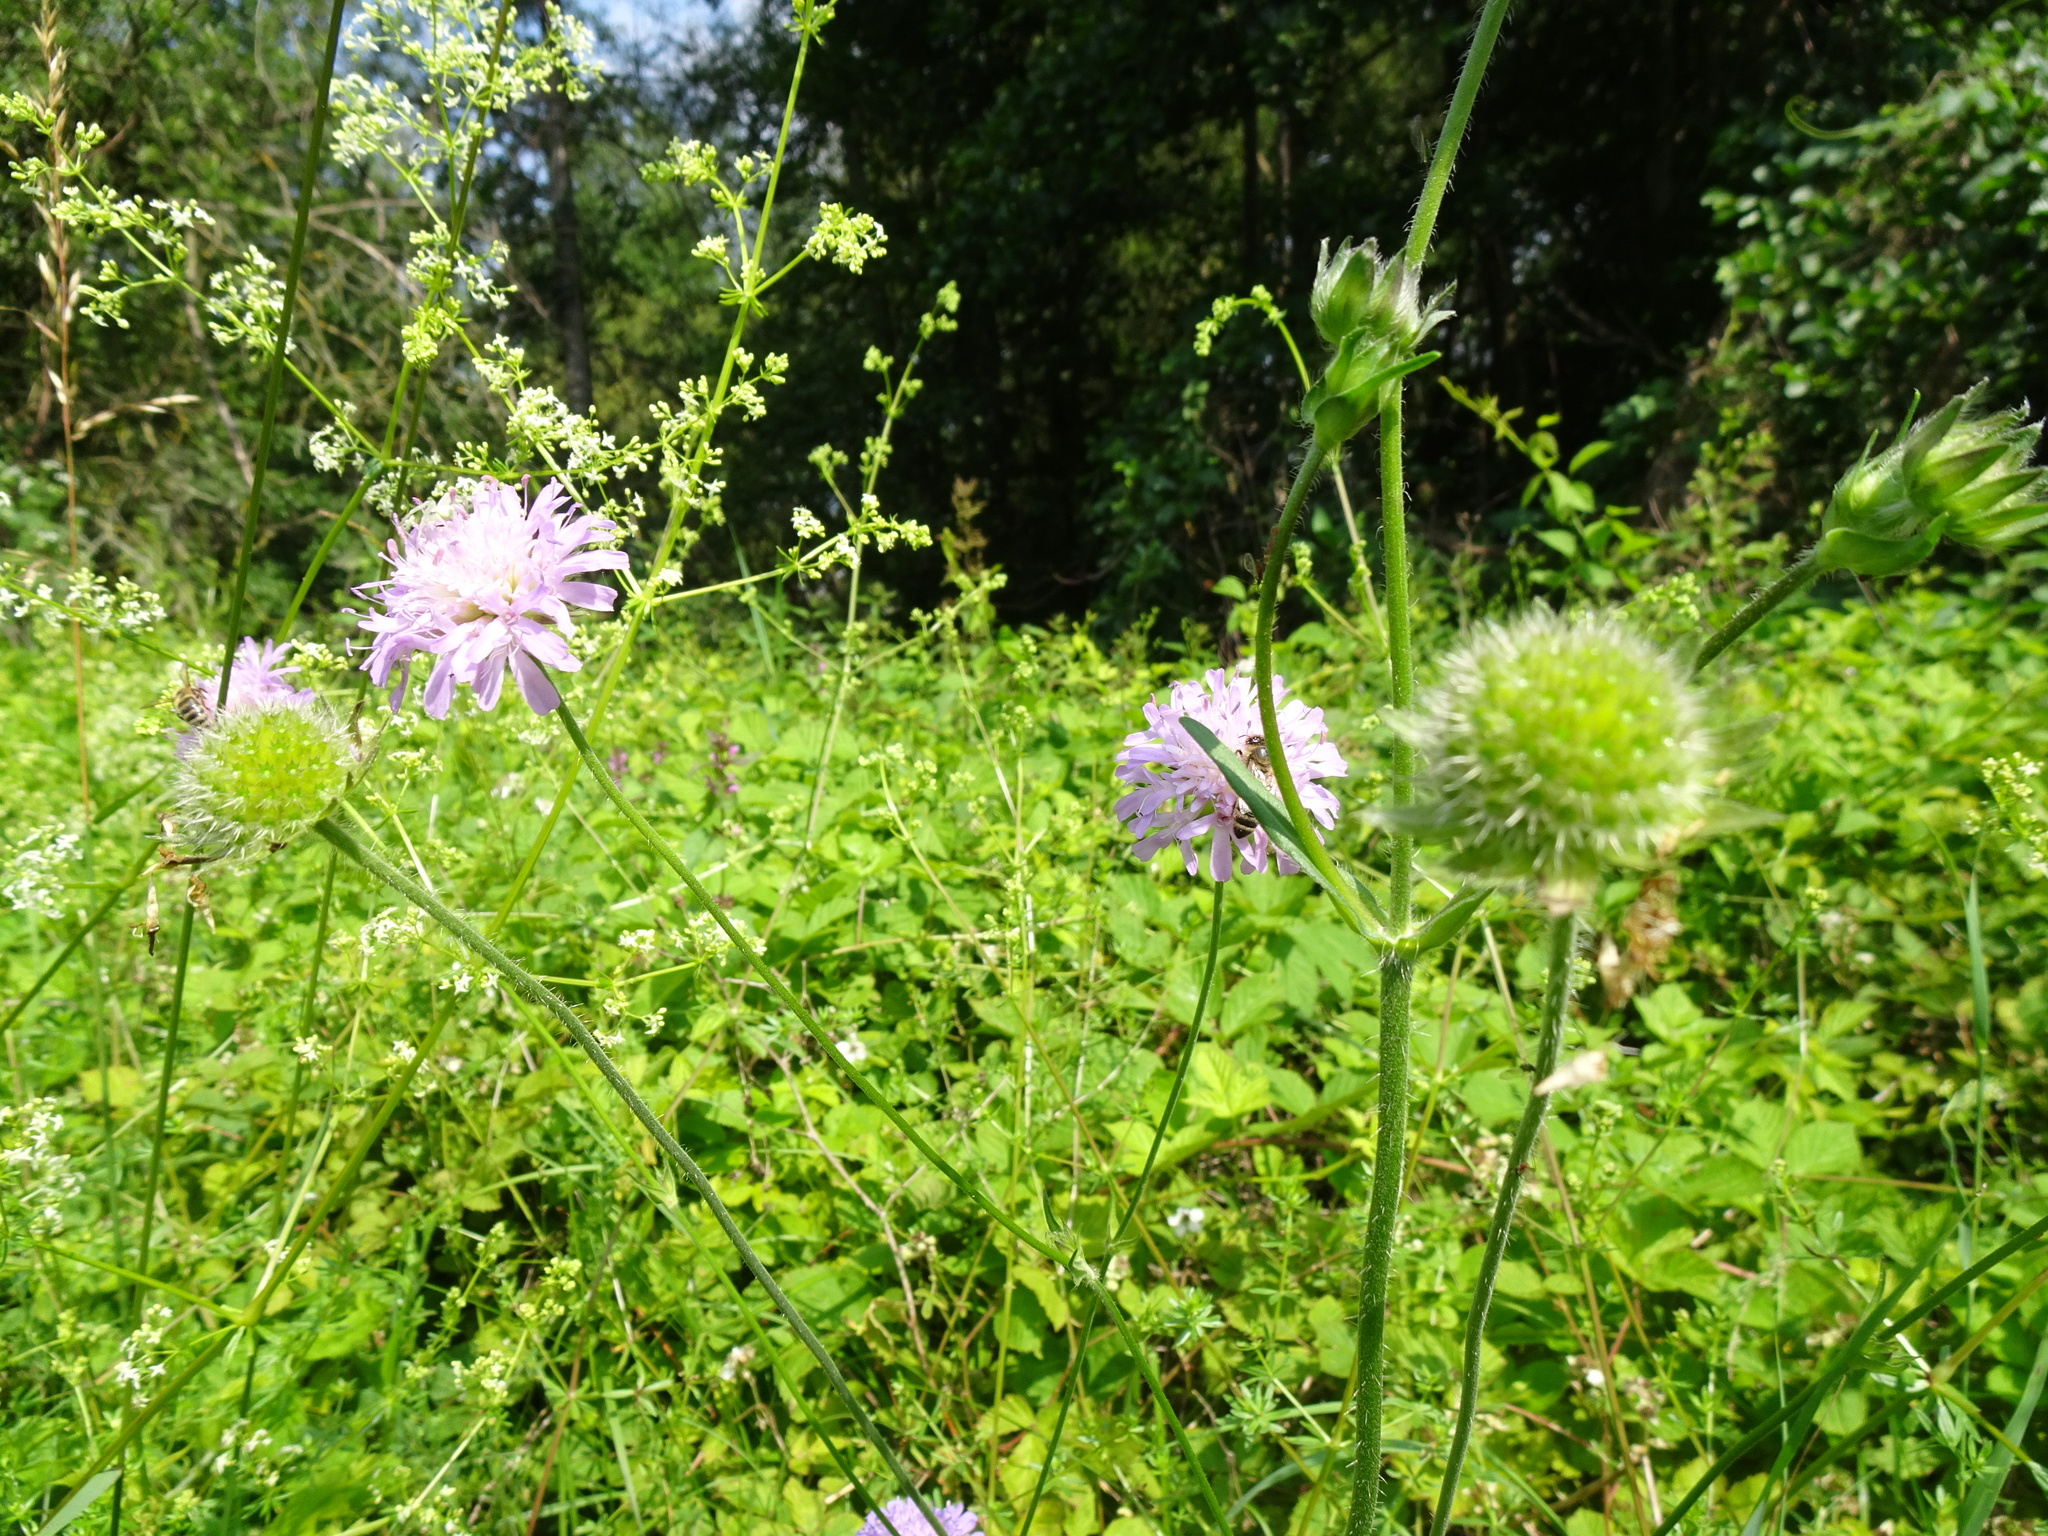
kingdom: Plantae
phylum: Tracheophyta
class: Magnoliopsida
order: Dipsacales
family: Caprifoliaceae
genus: Knautia
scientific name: Knautia arvensis
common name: Field scabiosa
